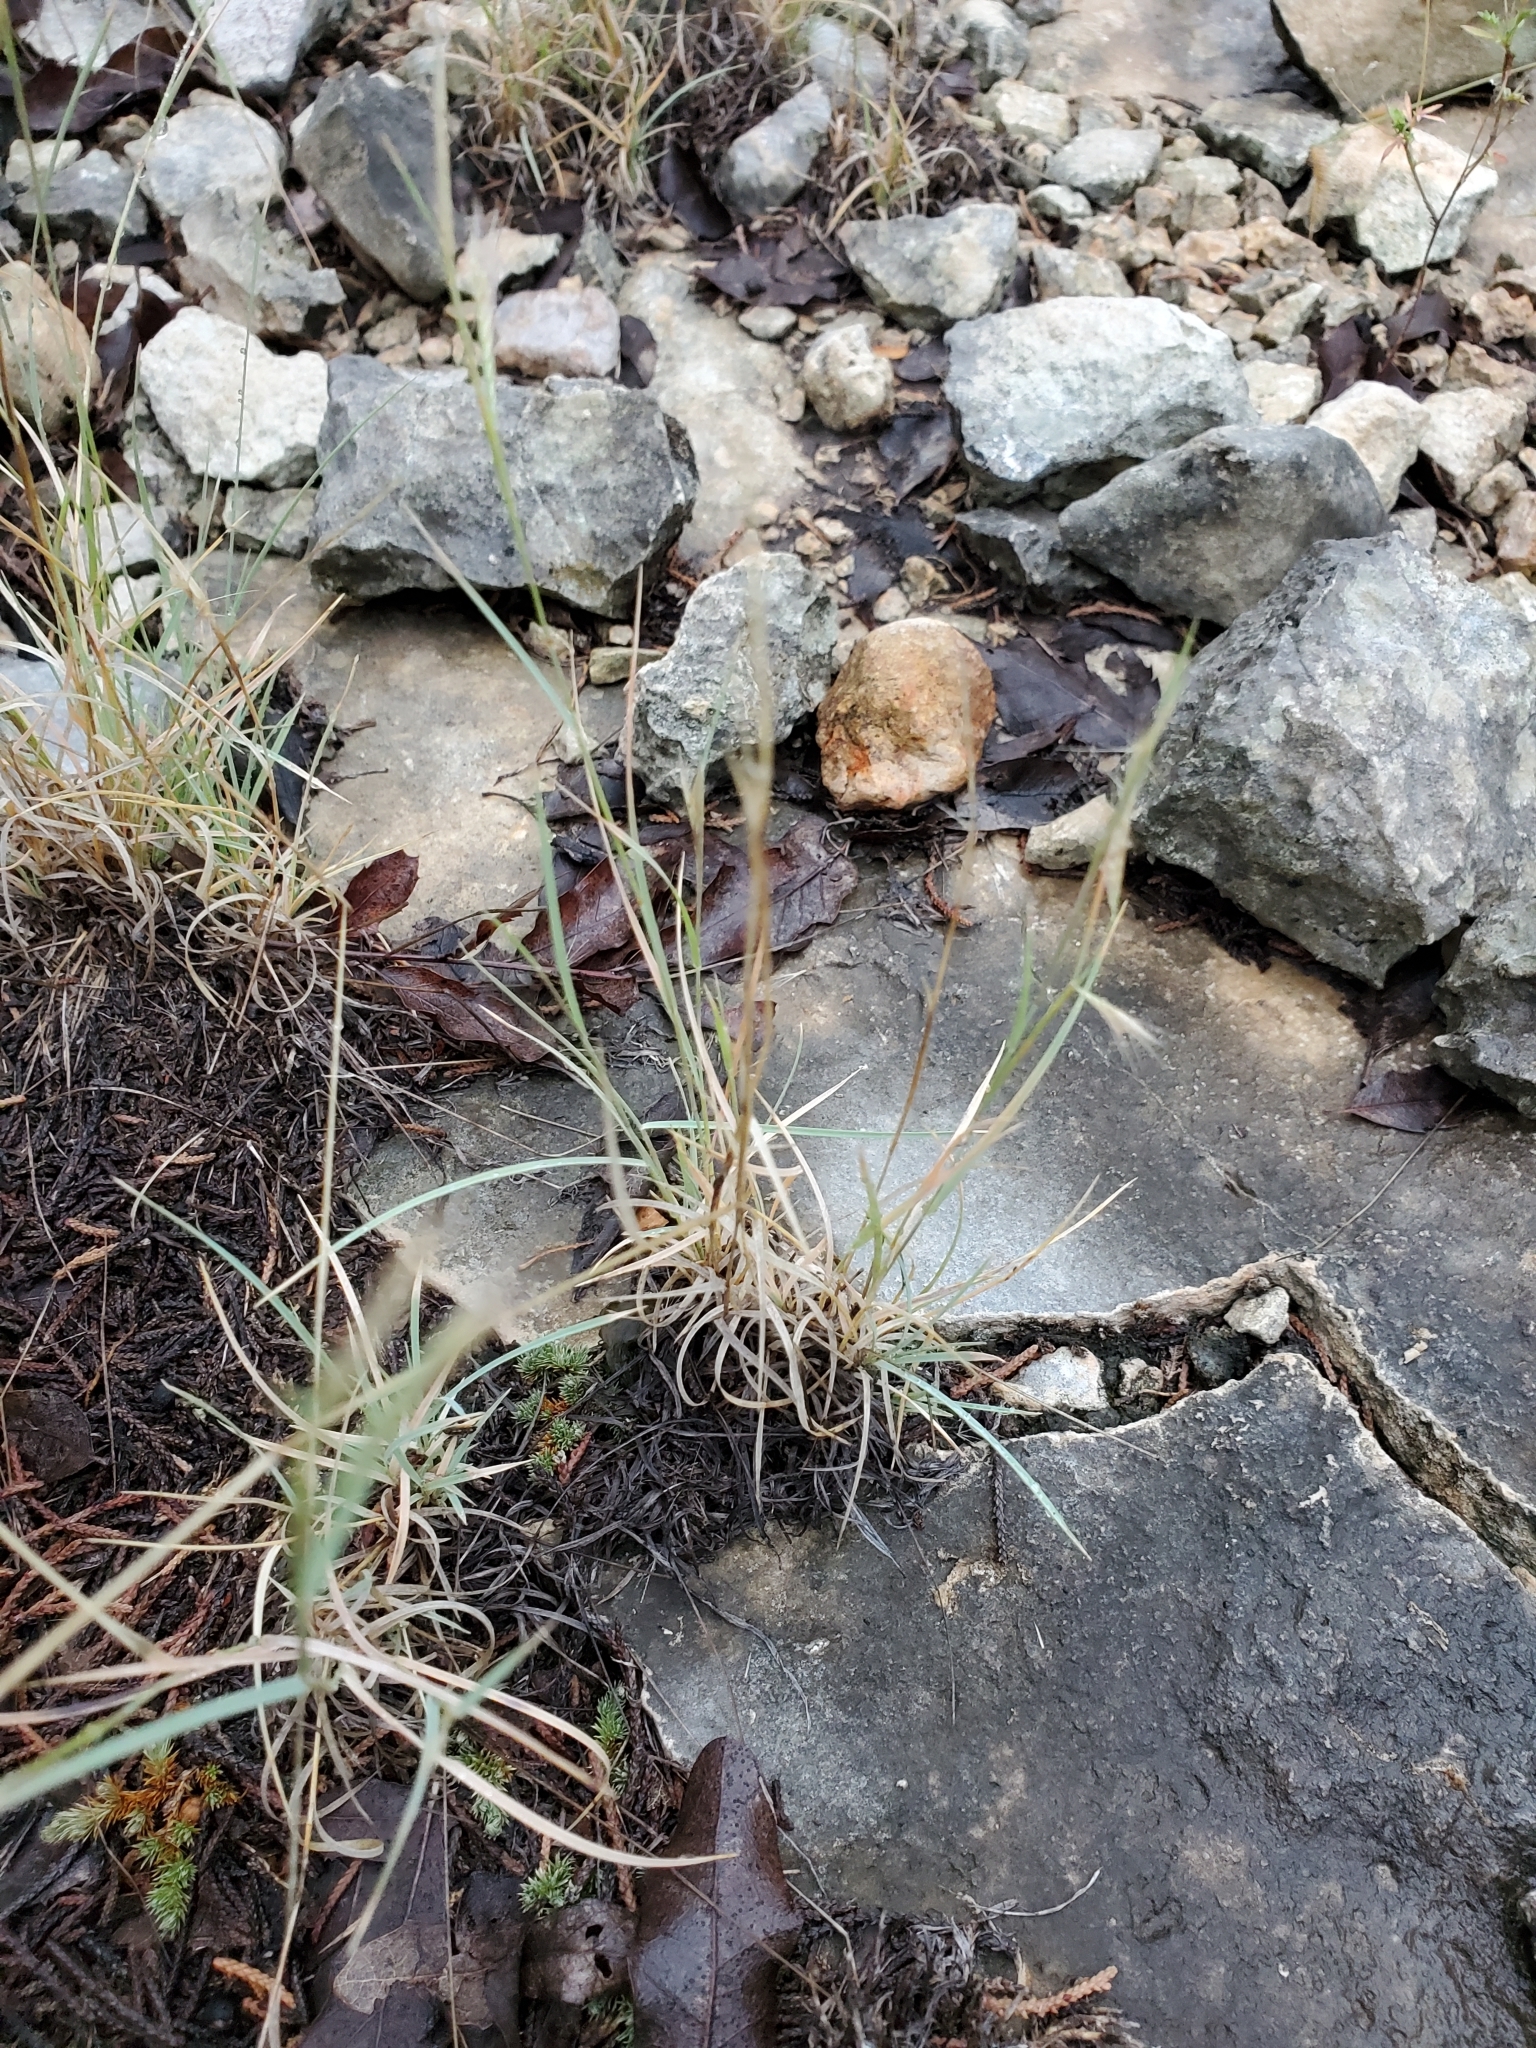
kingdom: Plantae
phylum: Tracheophyta
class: Liliopsida
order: Poales
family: Poaceae
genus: Bouteloua
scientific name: Bouteloua trifida
